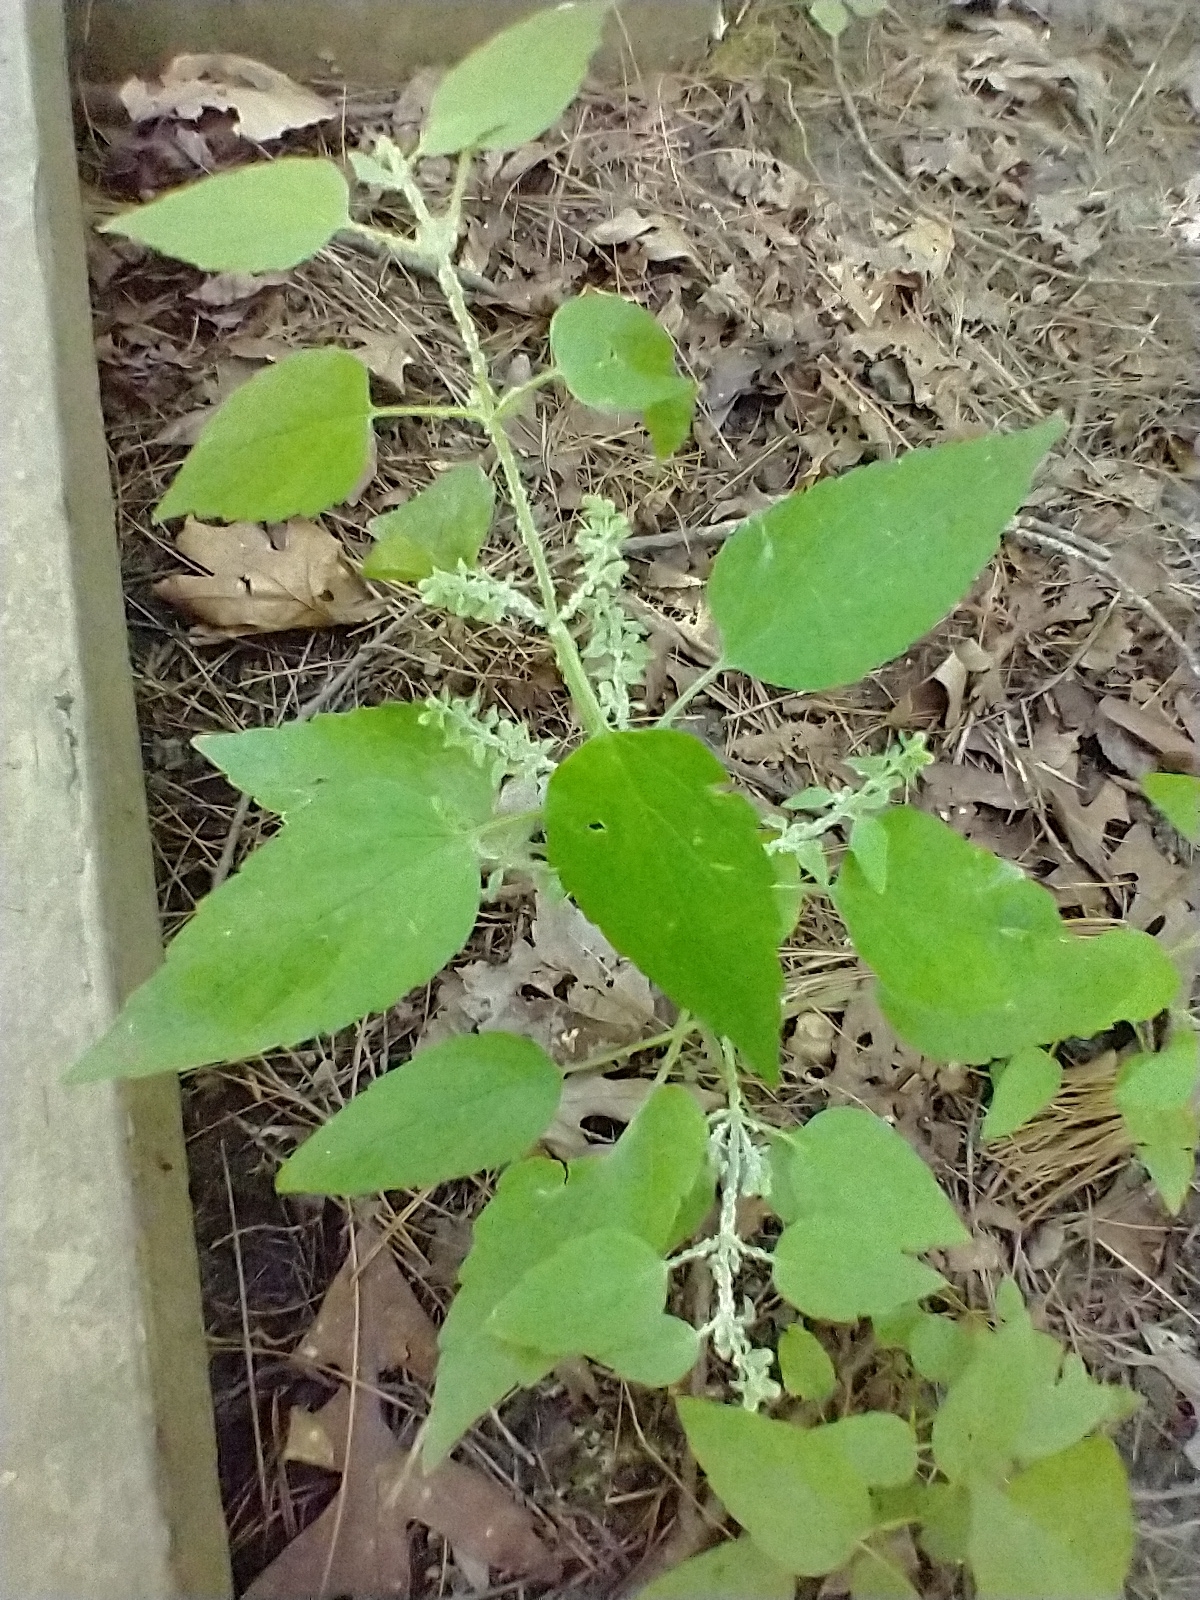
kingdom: Plantae
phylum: Tracheophyta
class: Magnoliopsida
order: Lamiales
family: Lamiaceae
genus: Scutellaria
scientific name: Scutellaria lateriflora
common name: Blue skullcap
